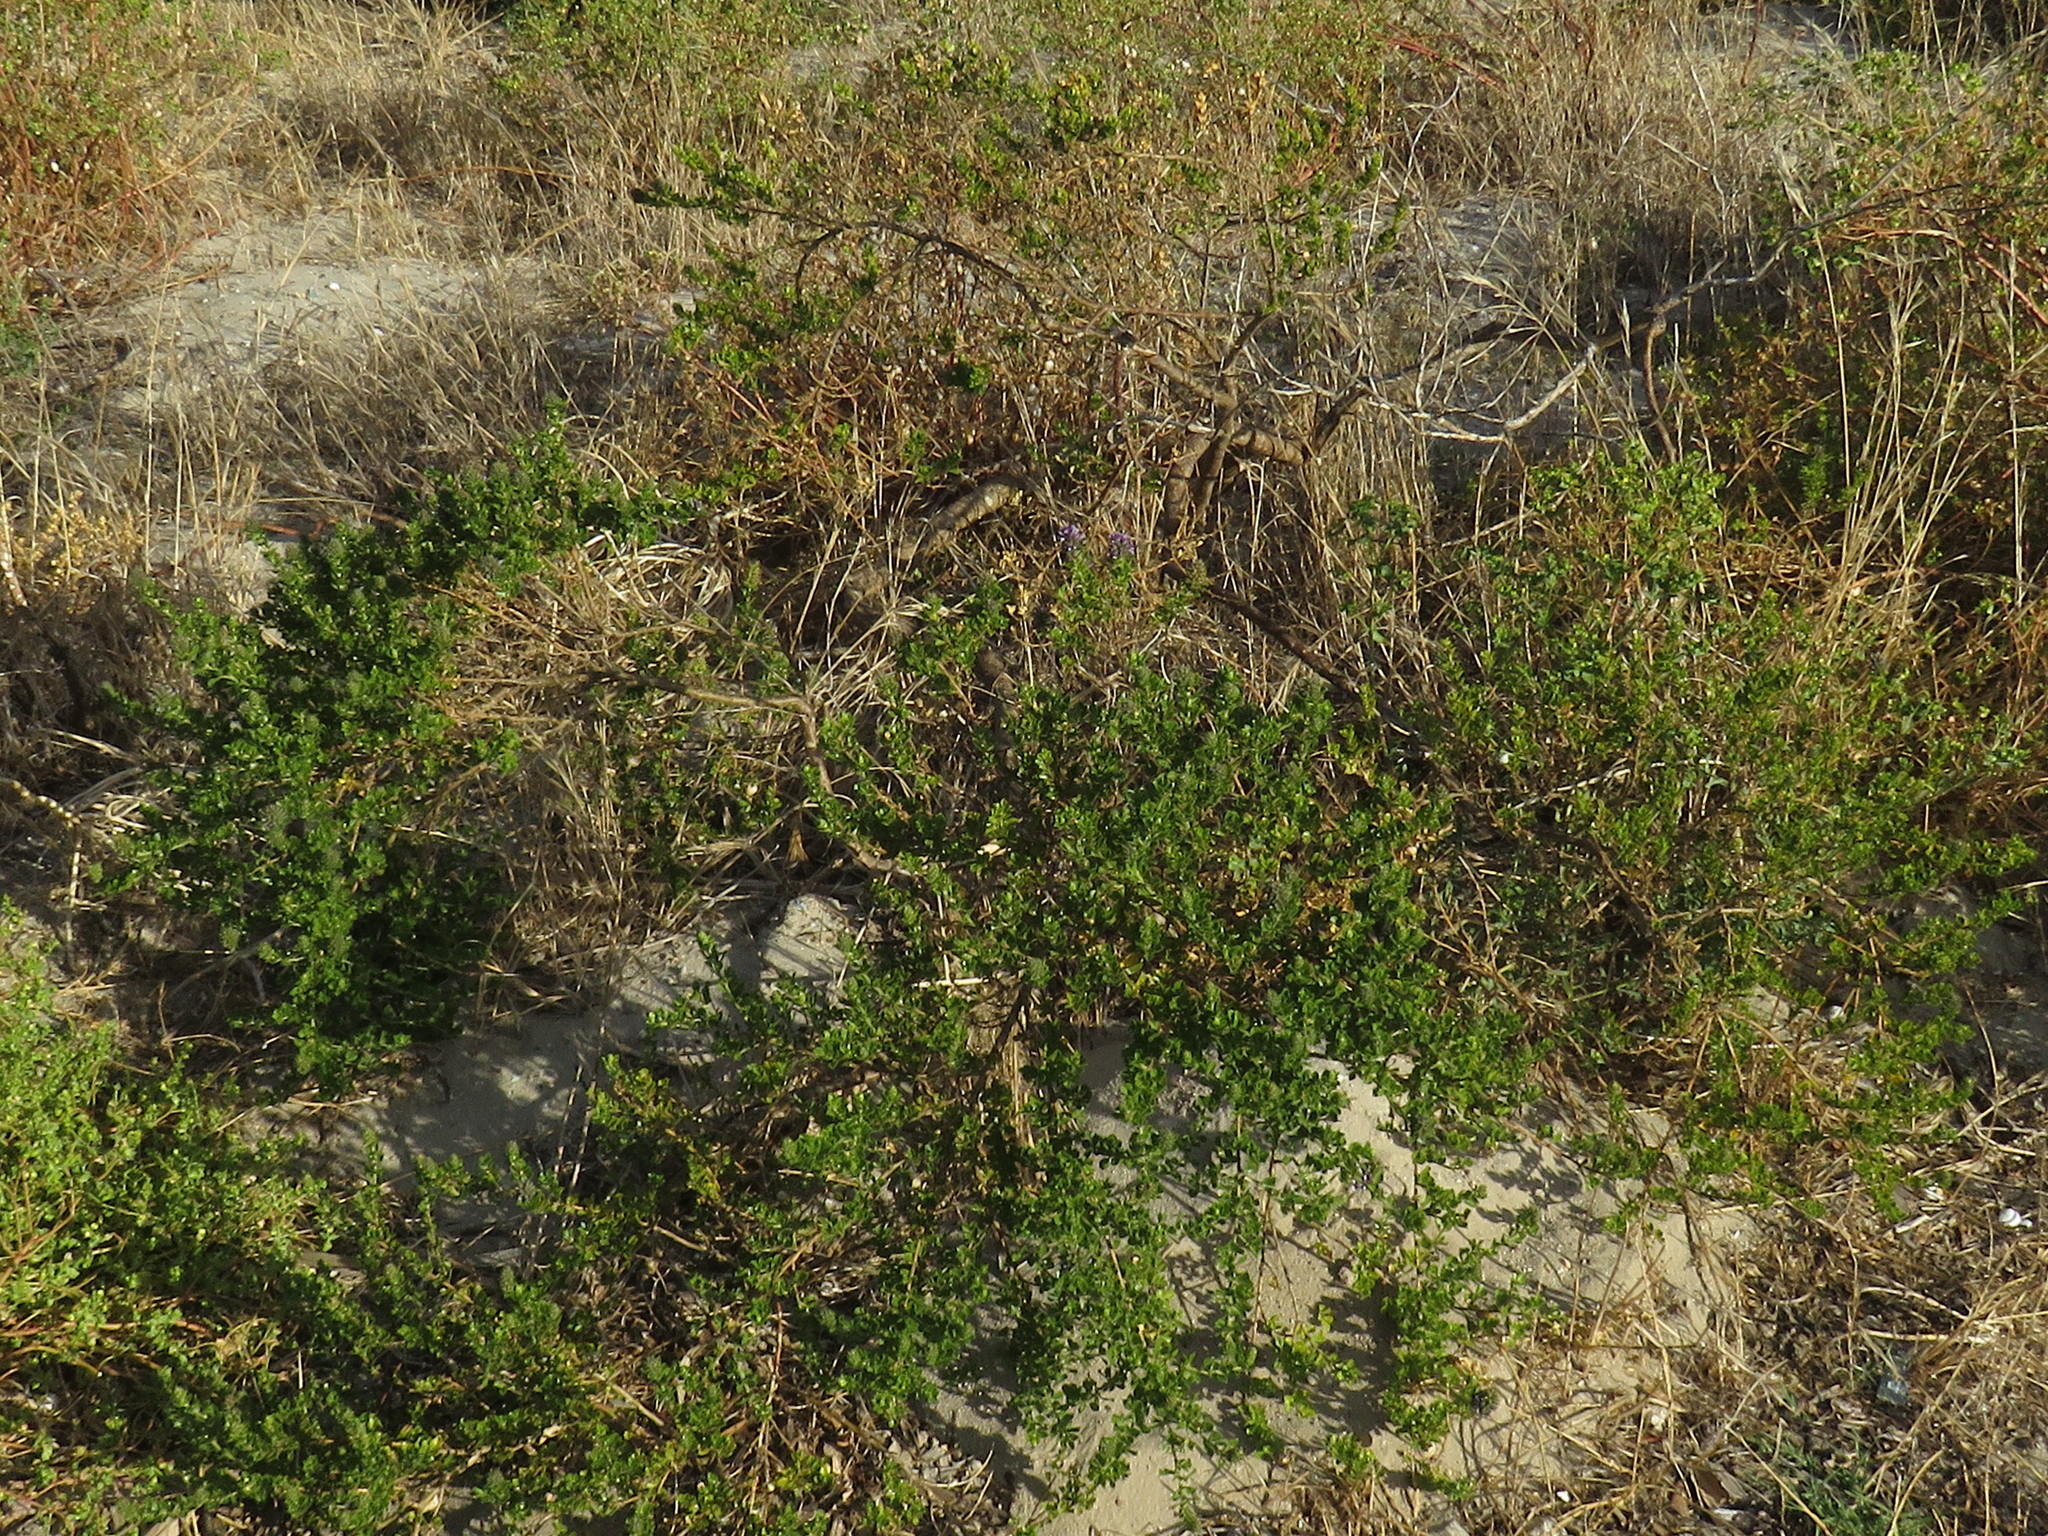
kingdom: Plantae
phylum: Tracheophyta
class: Magnoliopsida
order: Fabales
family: Fabaceae
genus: Psoralea
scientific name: Psoralea bracteolata
